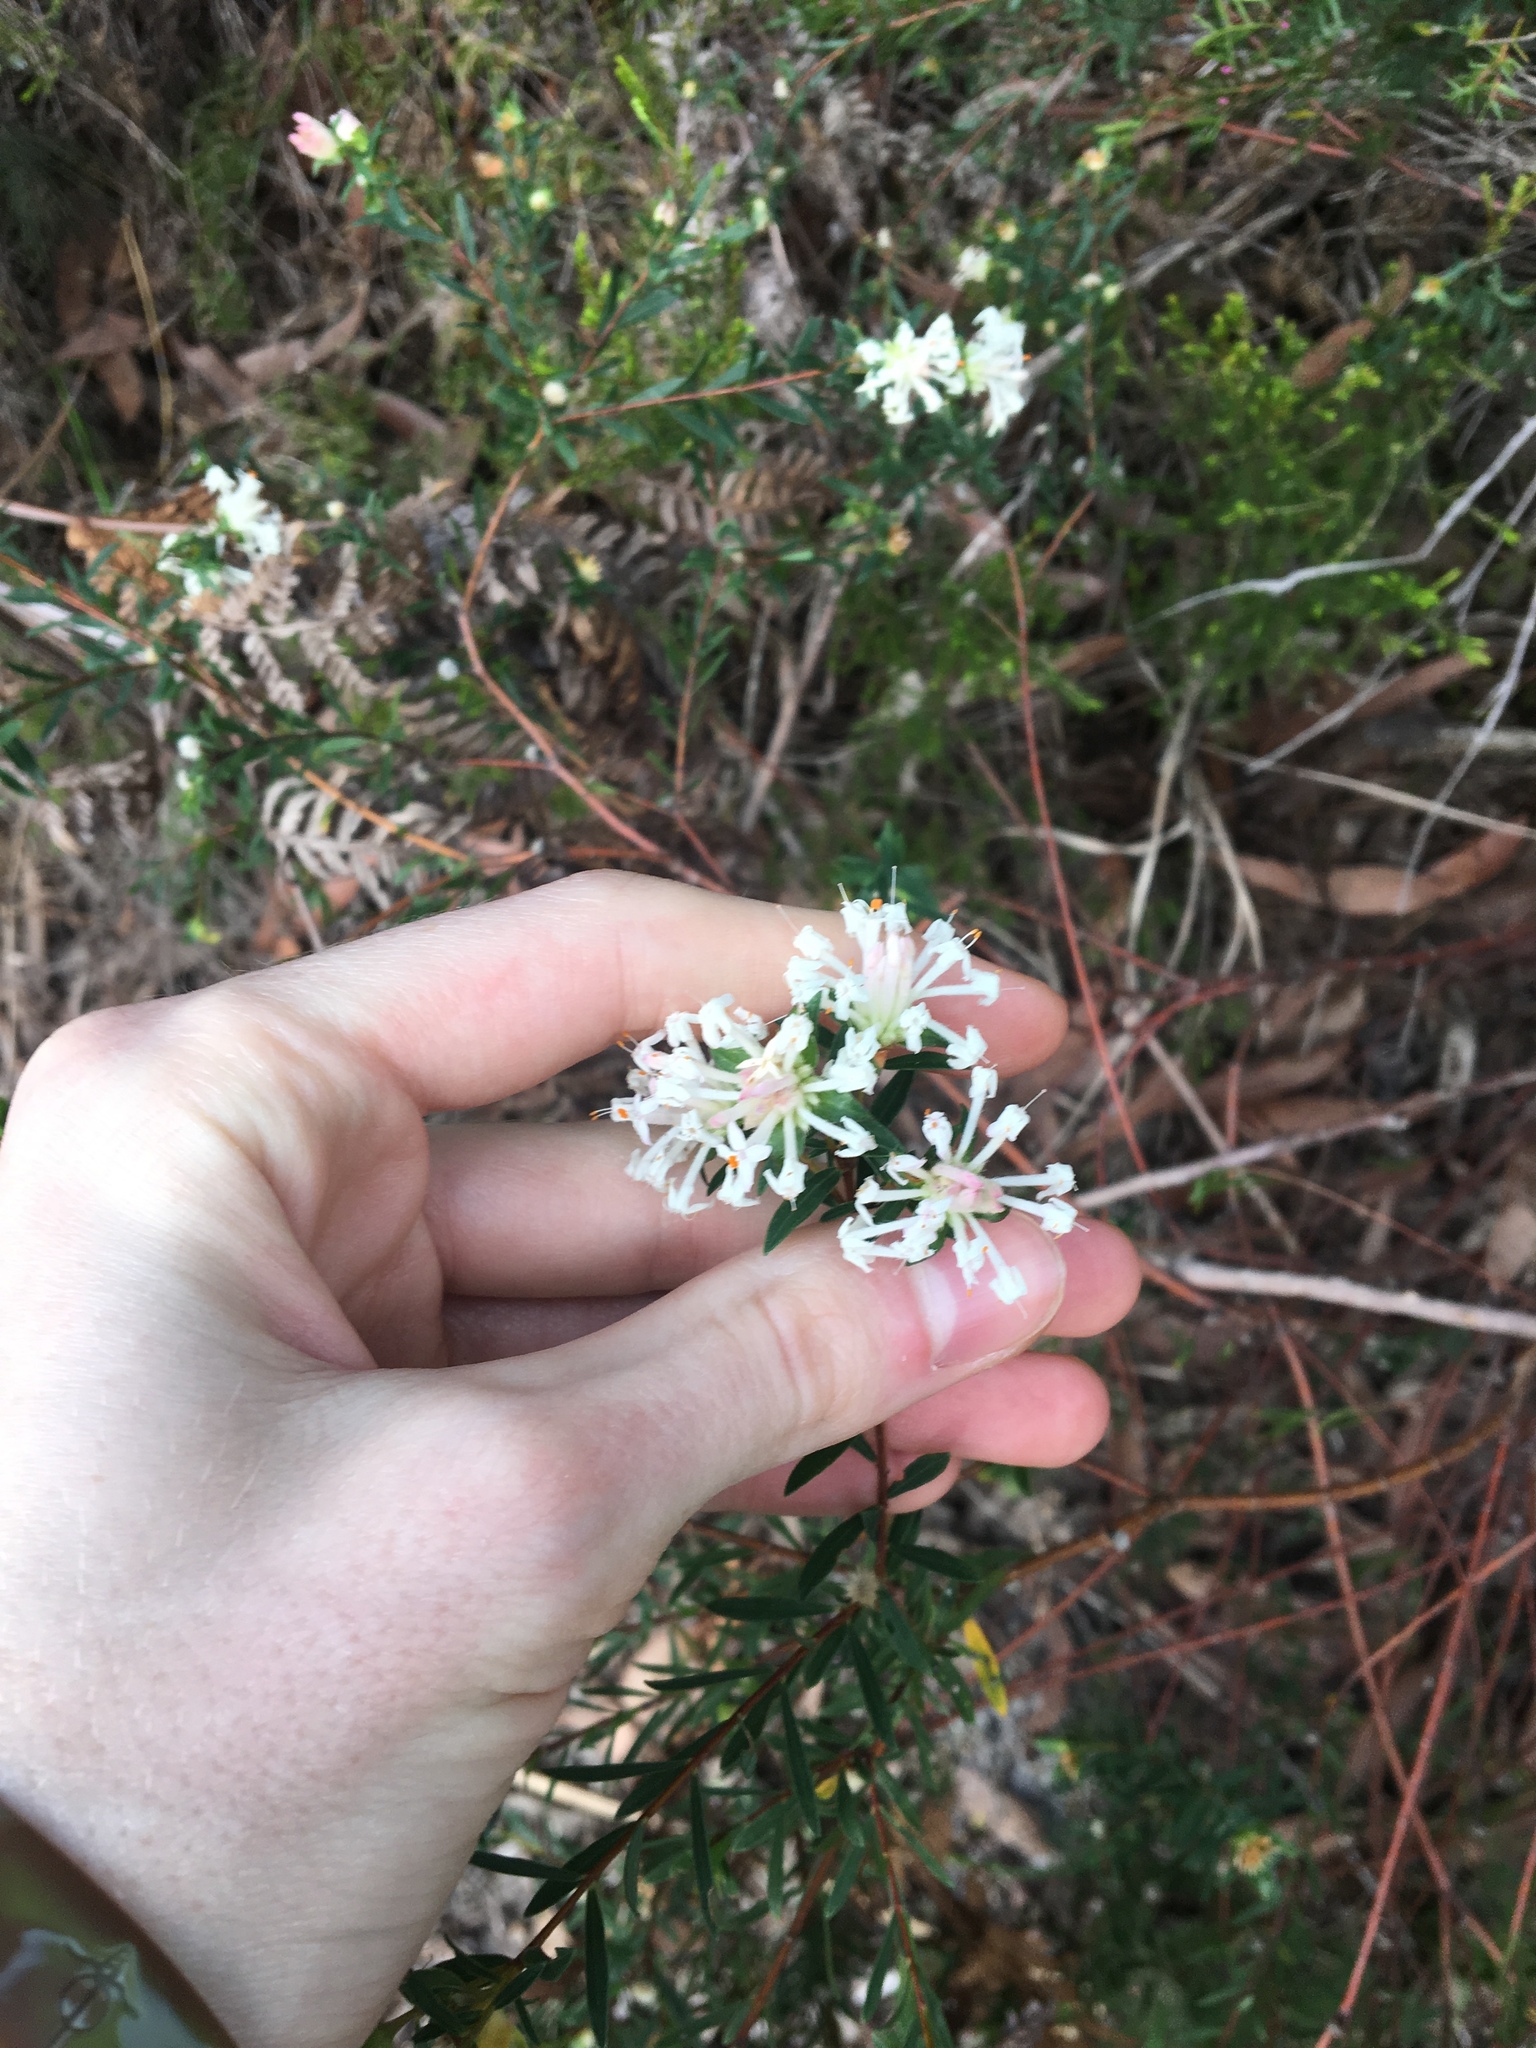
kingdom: Plantae
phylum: Tracheophyta
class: Magnoliopsida
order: Malvales
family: Thymelaeaceae
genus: Pimelea
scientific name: Pimelea linifolia
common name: Queen-of-the-bush
